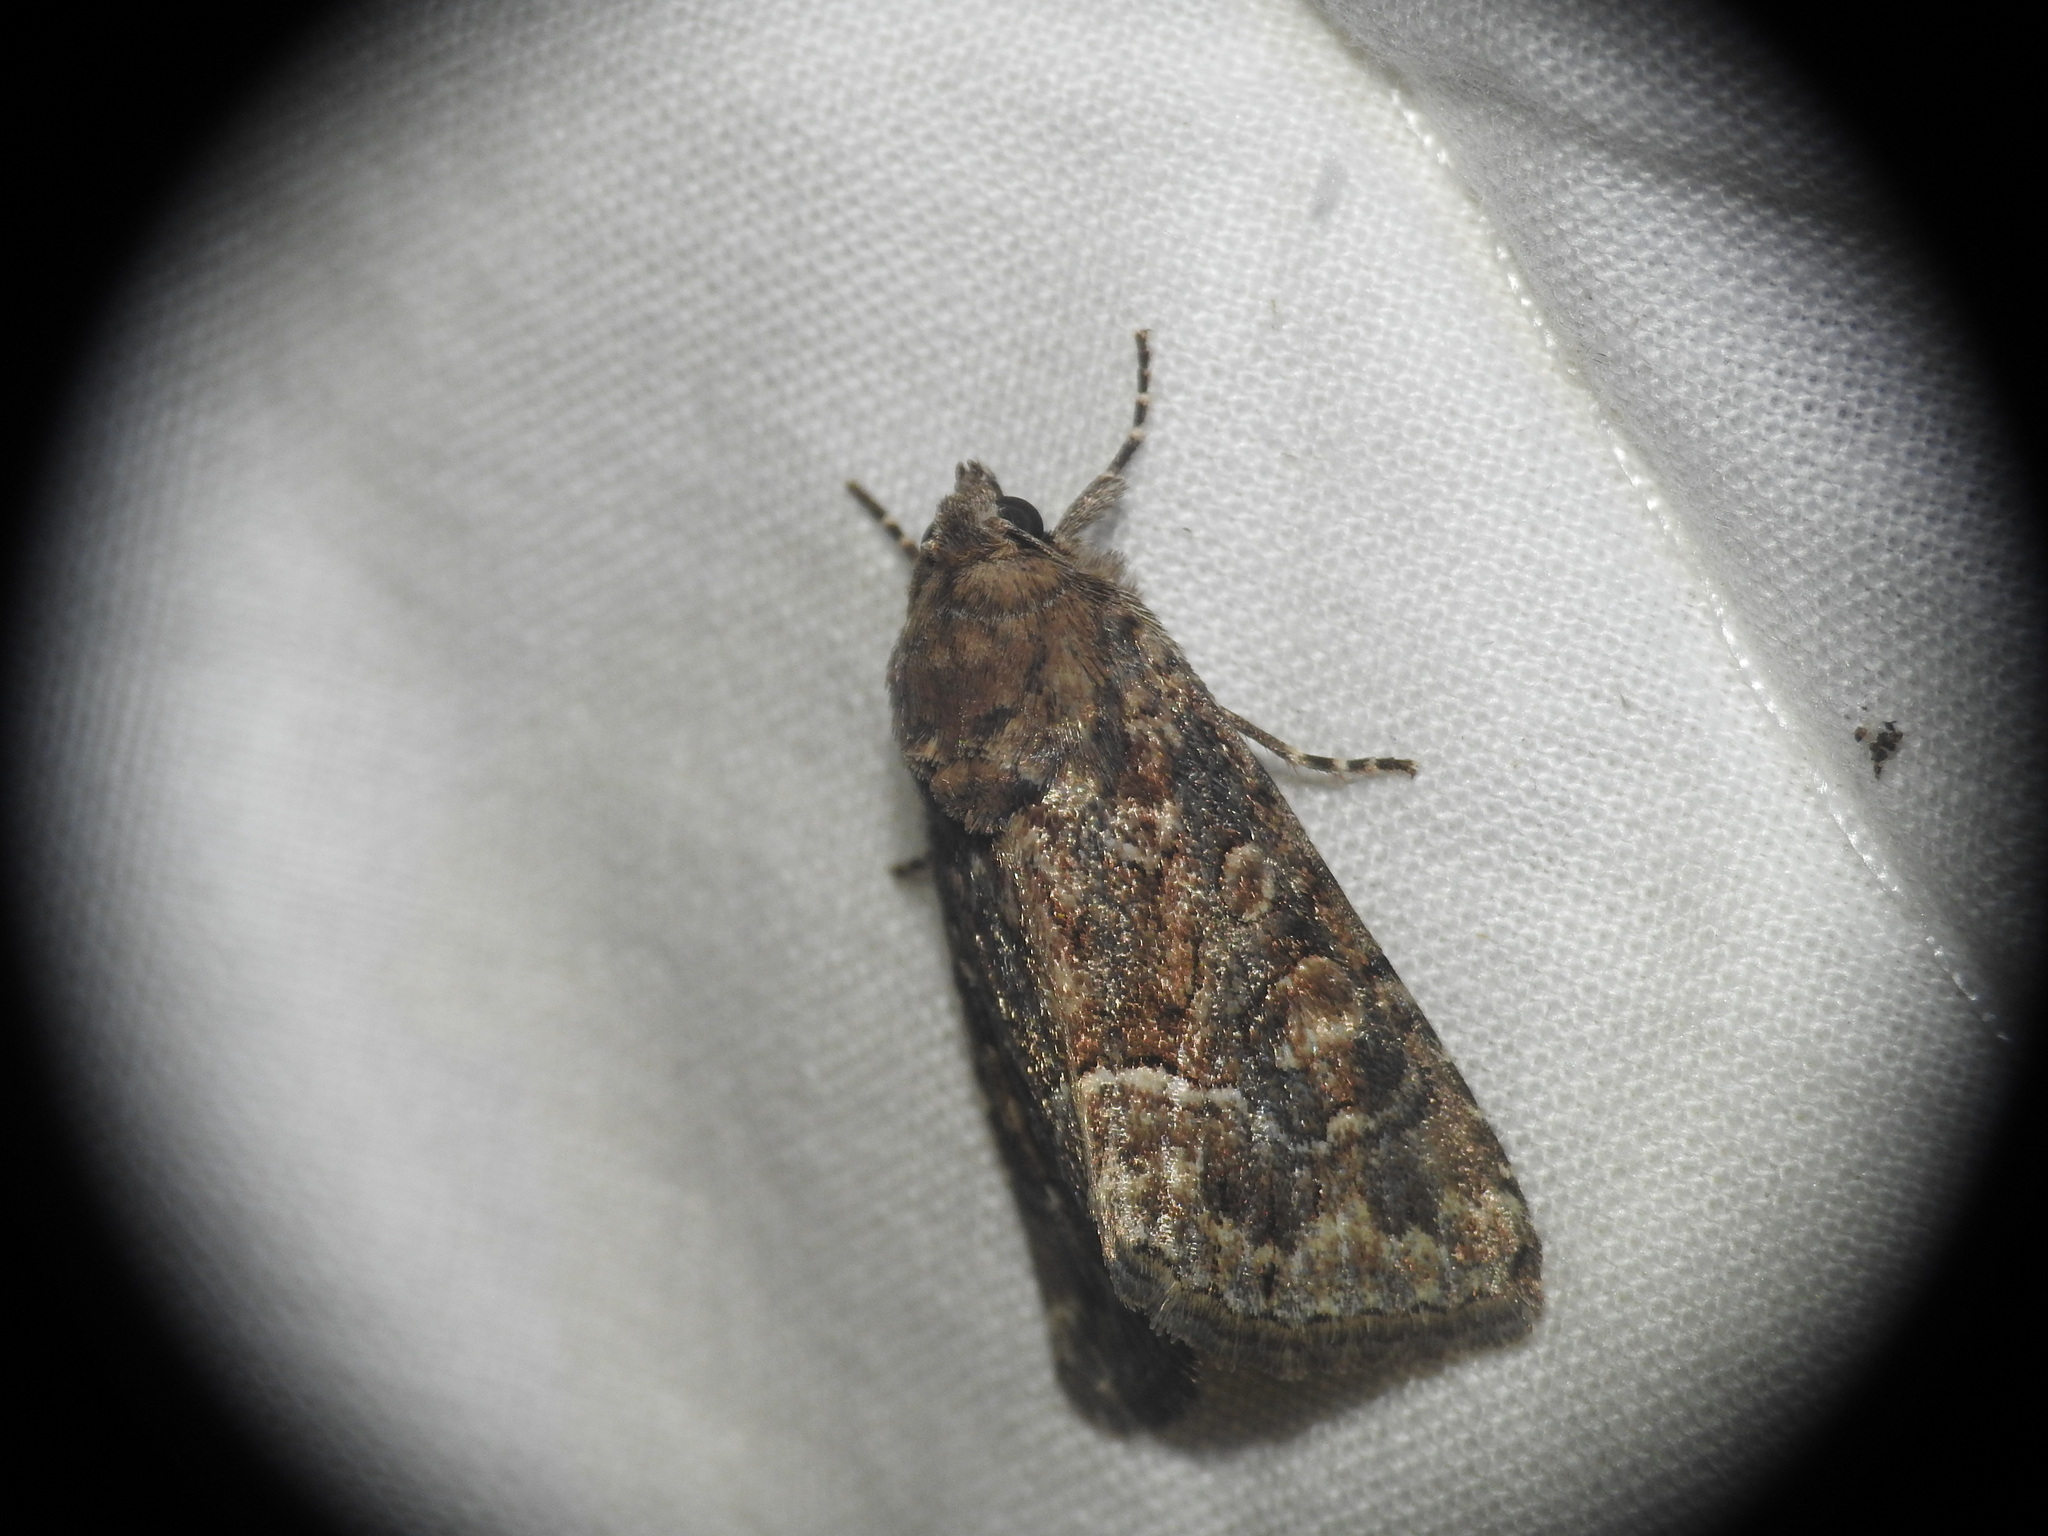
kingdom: Animalia
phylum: Arthropoda
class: Insecta
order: Lepidoptera
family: Noctuidae
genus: Thalpophila
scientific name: Thalpophila matura
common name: Straw underwing
